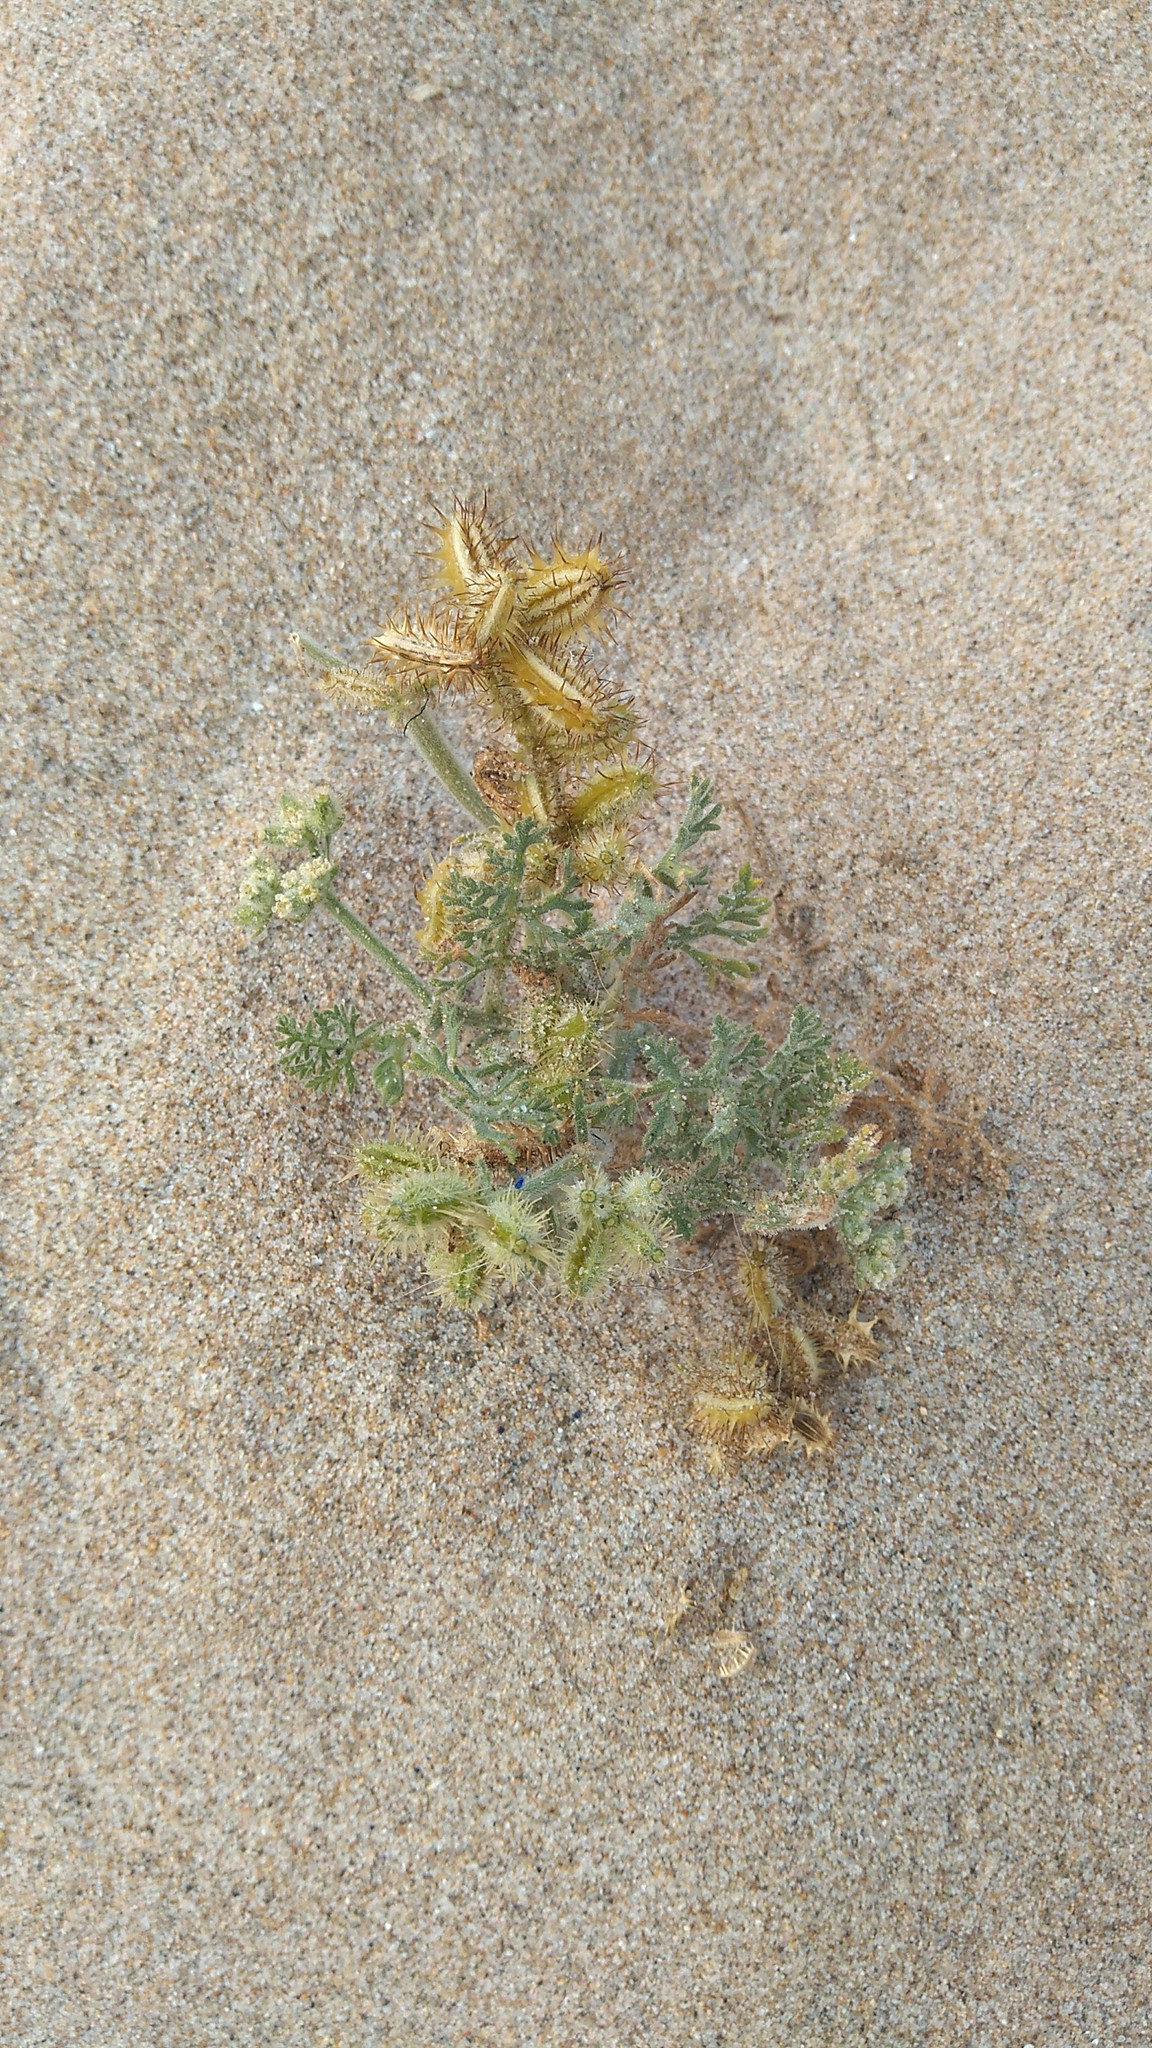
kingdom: Plantae
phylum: Tracheophyta
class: Magnoliopsida
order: Apiales
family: Apiaceae
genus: Daucus
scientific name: Daucus pumilus
